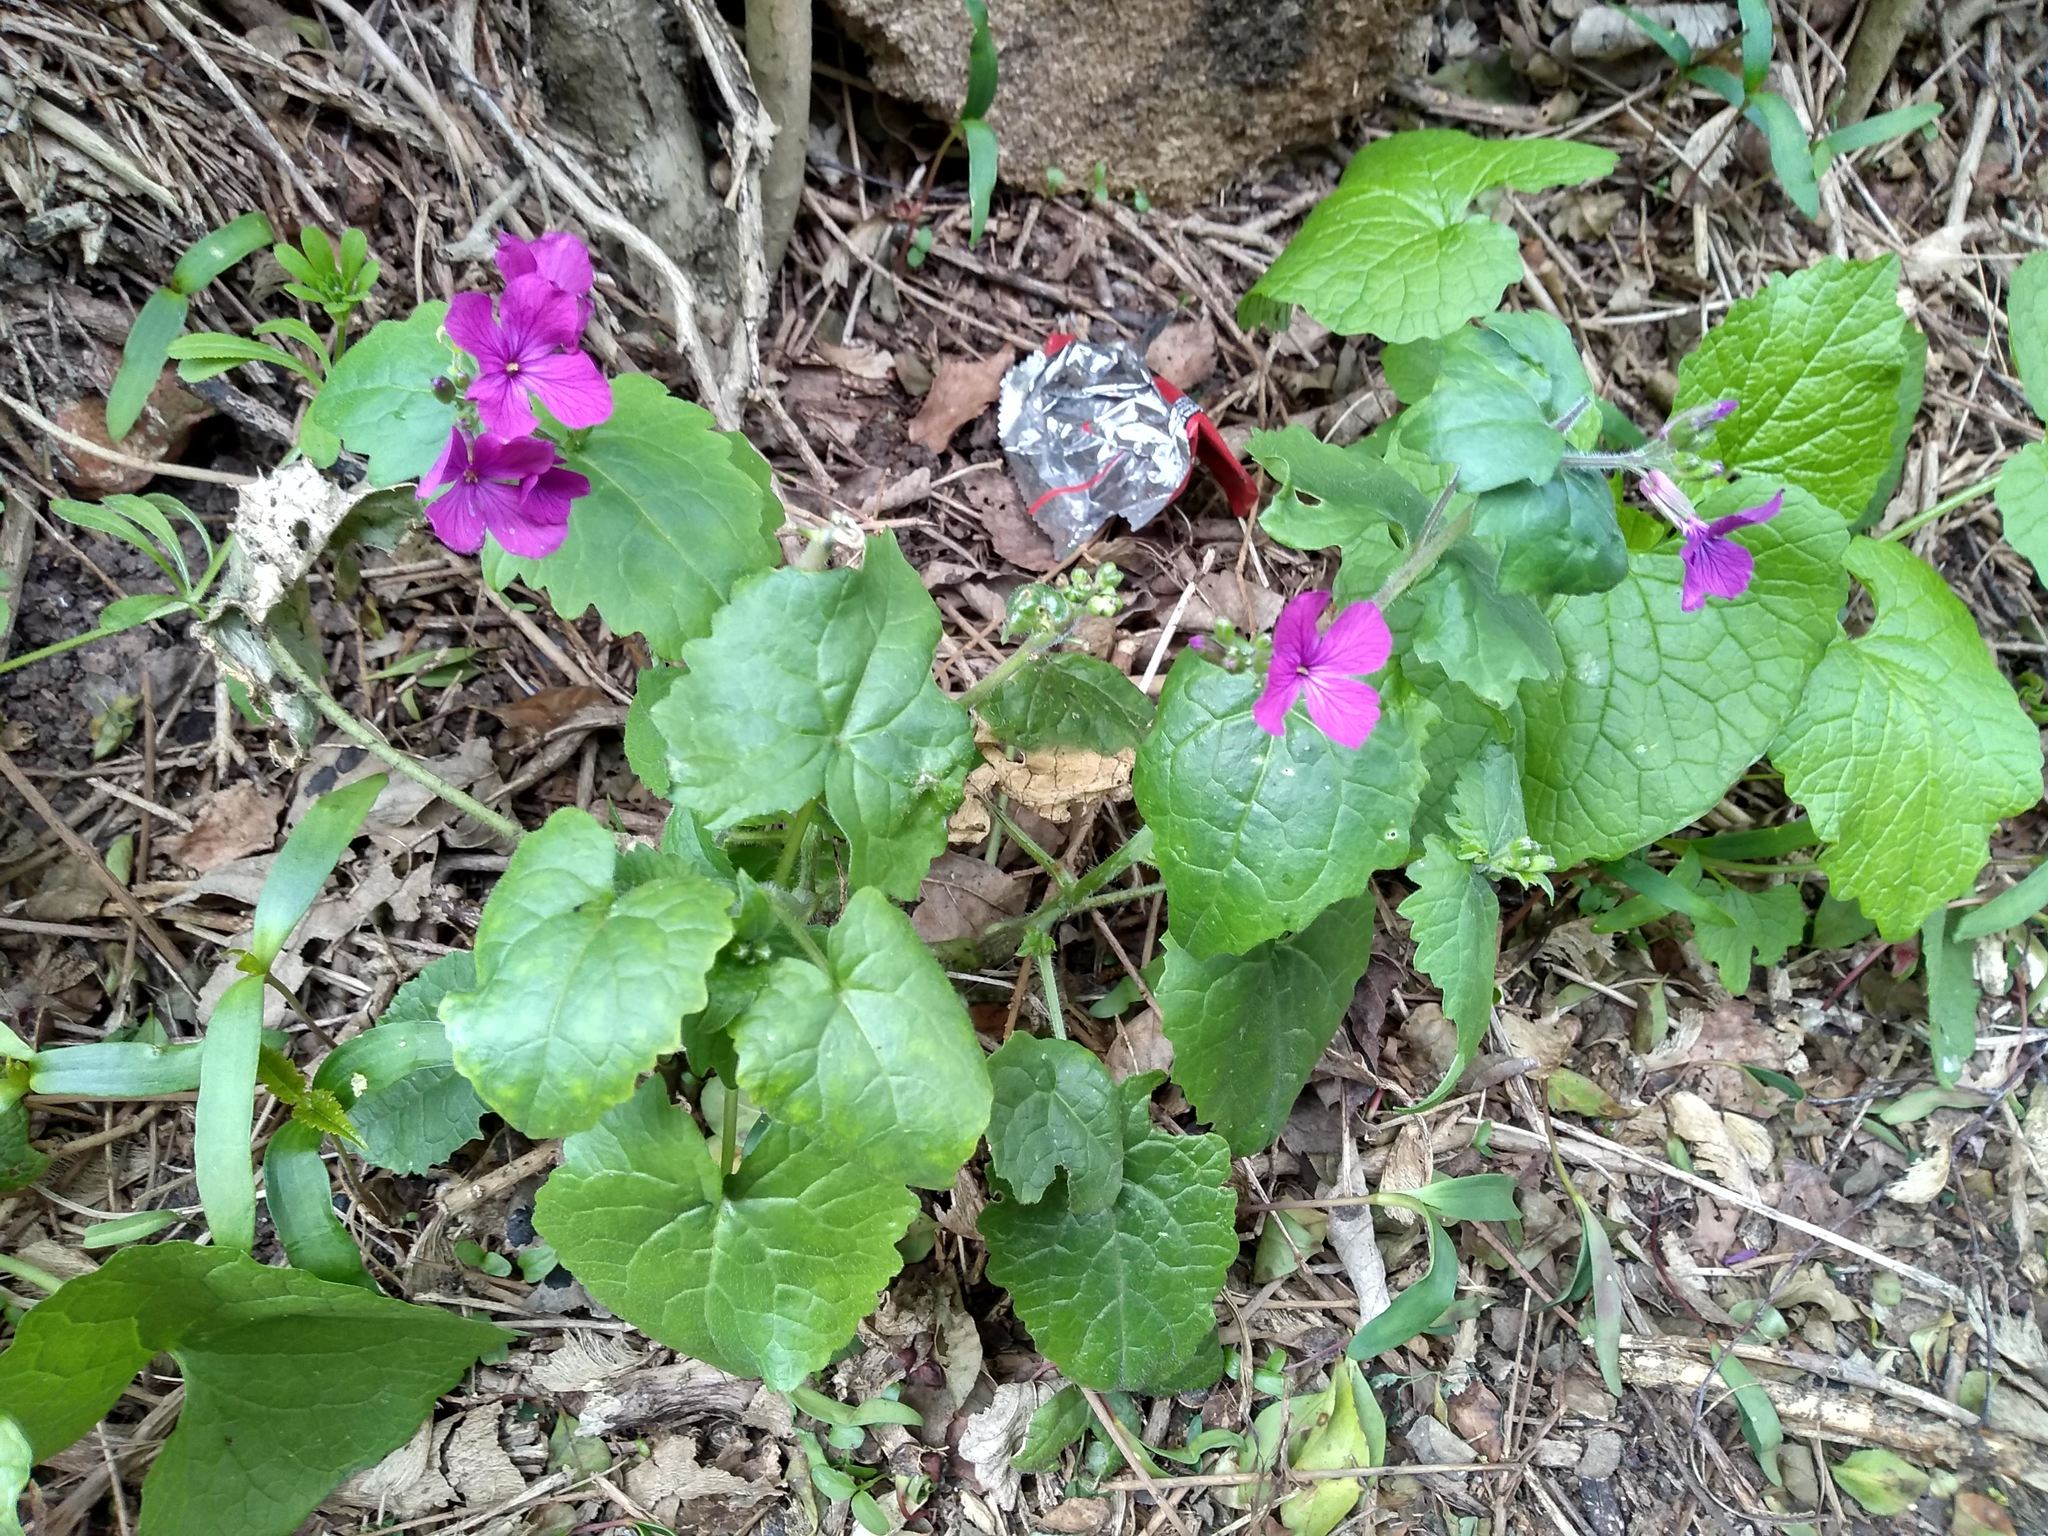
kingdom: Plantae
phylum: Tracheophyta
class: Magnoliopsida
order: Brassicales
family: Brassicaceae
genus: Lunaria
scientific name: Lunaria annua
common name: Honesty
